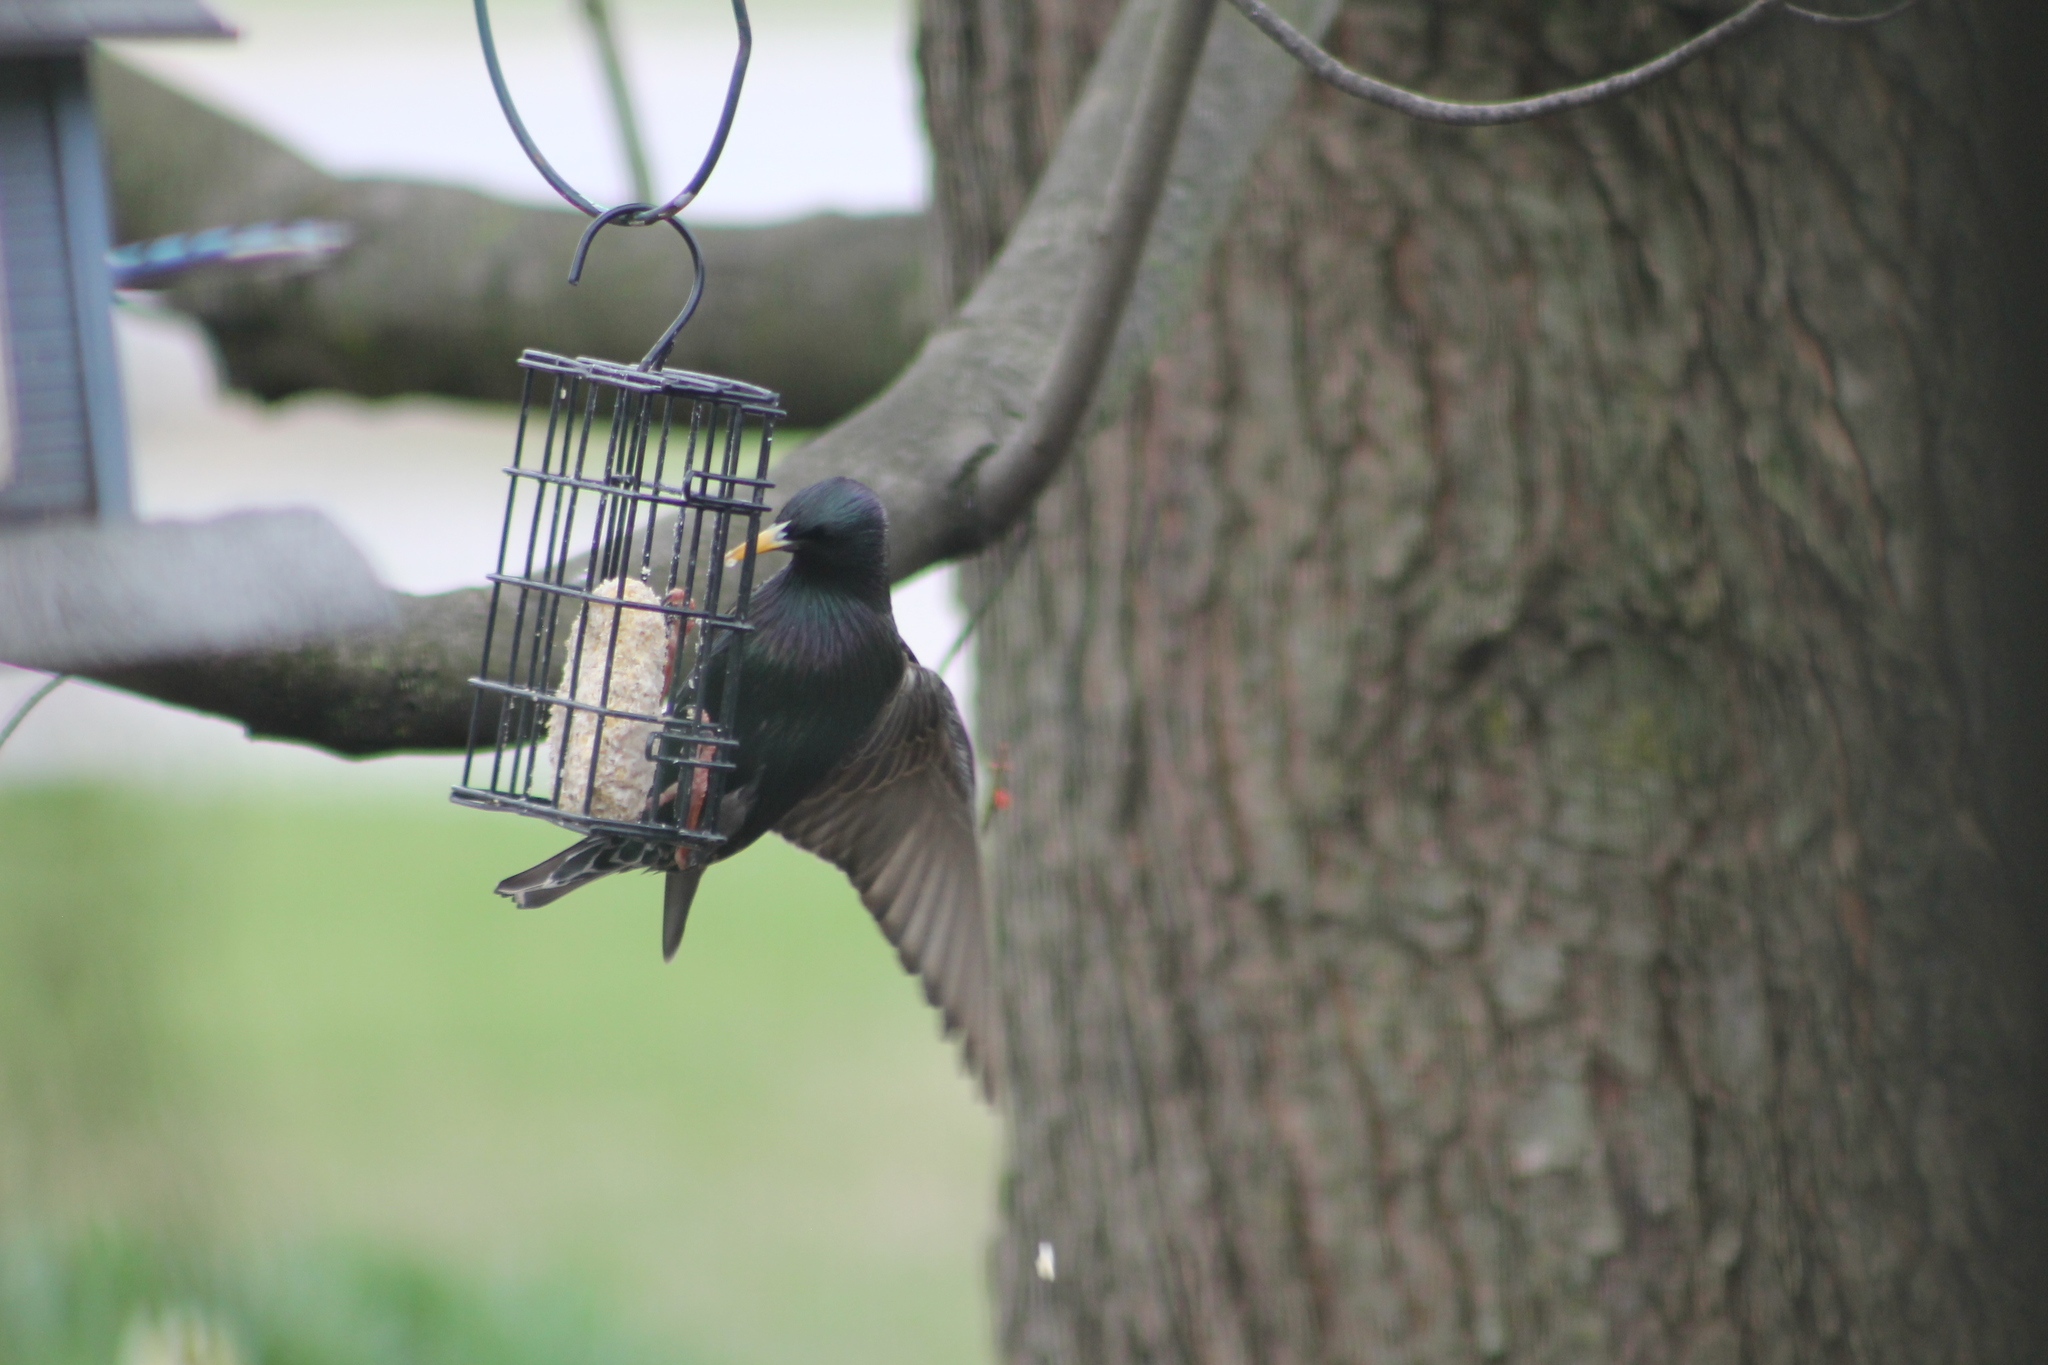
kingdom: Animalia
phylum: Chordata
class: Aves
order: Passeriformes
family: Sturnidae
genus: Sturnus
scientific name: Sturnus vulgaris
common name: Common starling
